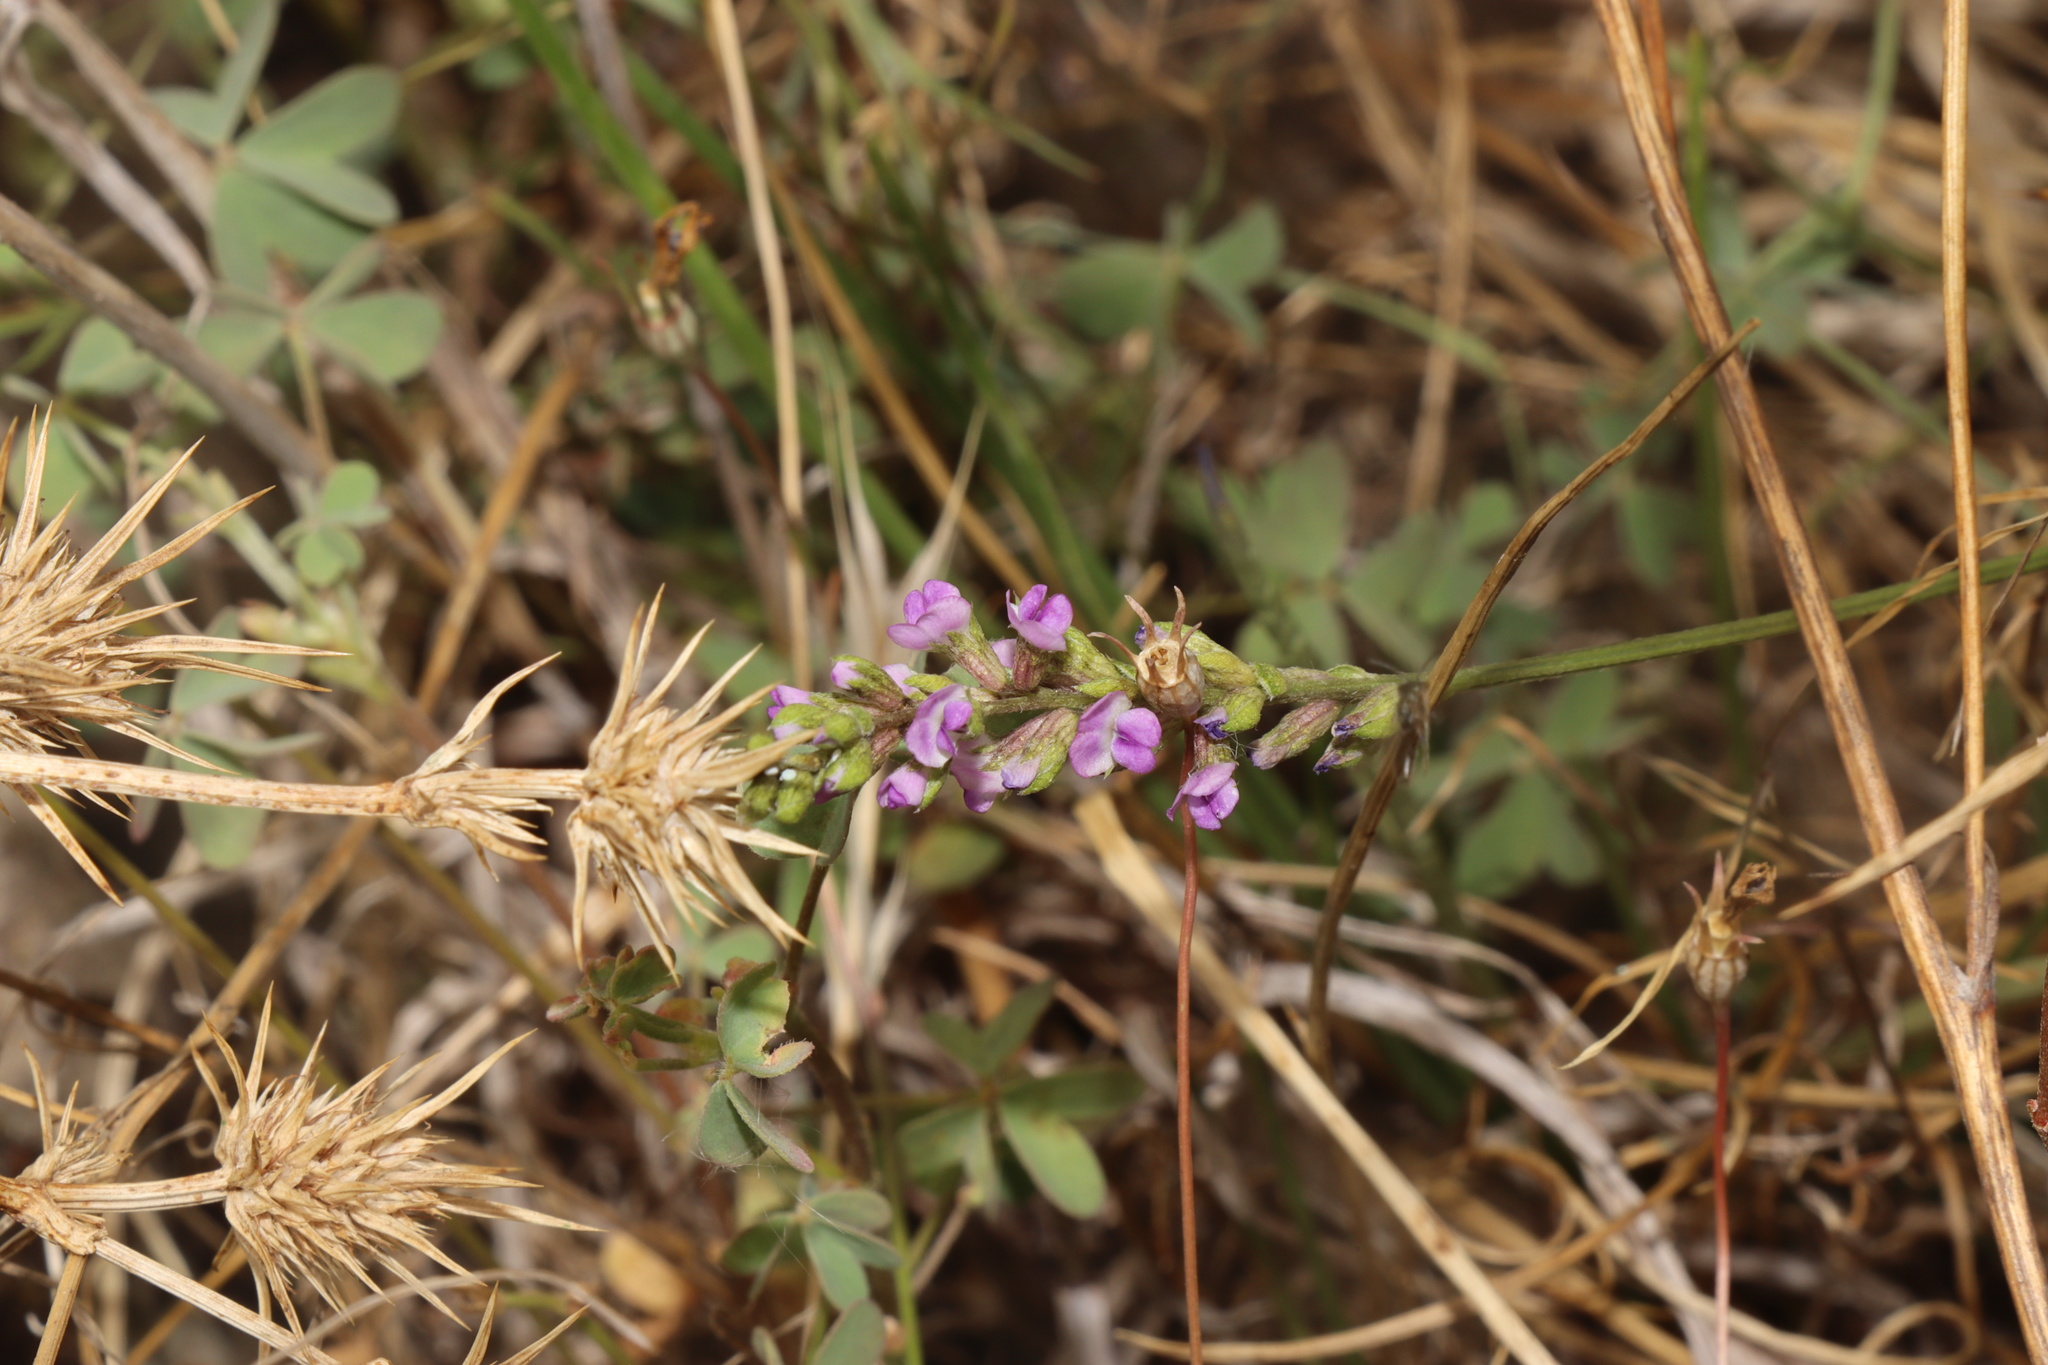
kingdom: Plantae
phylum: Tracheophyta
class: Magnoliopsida
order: Fabales
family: Fabaceae
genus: Cullen
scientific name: Cullen tenax
